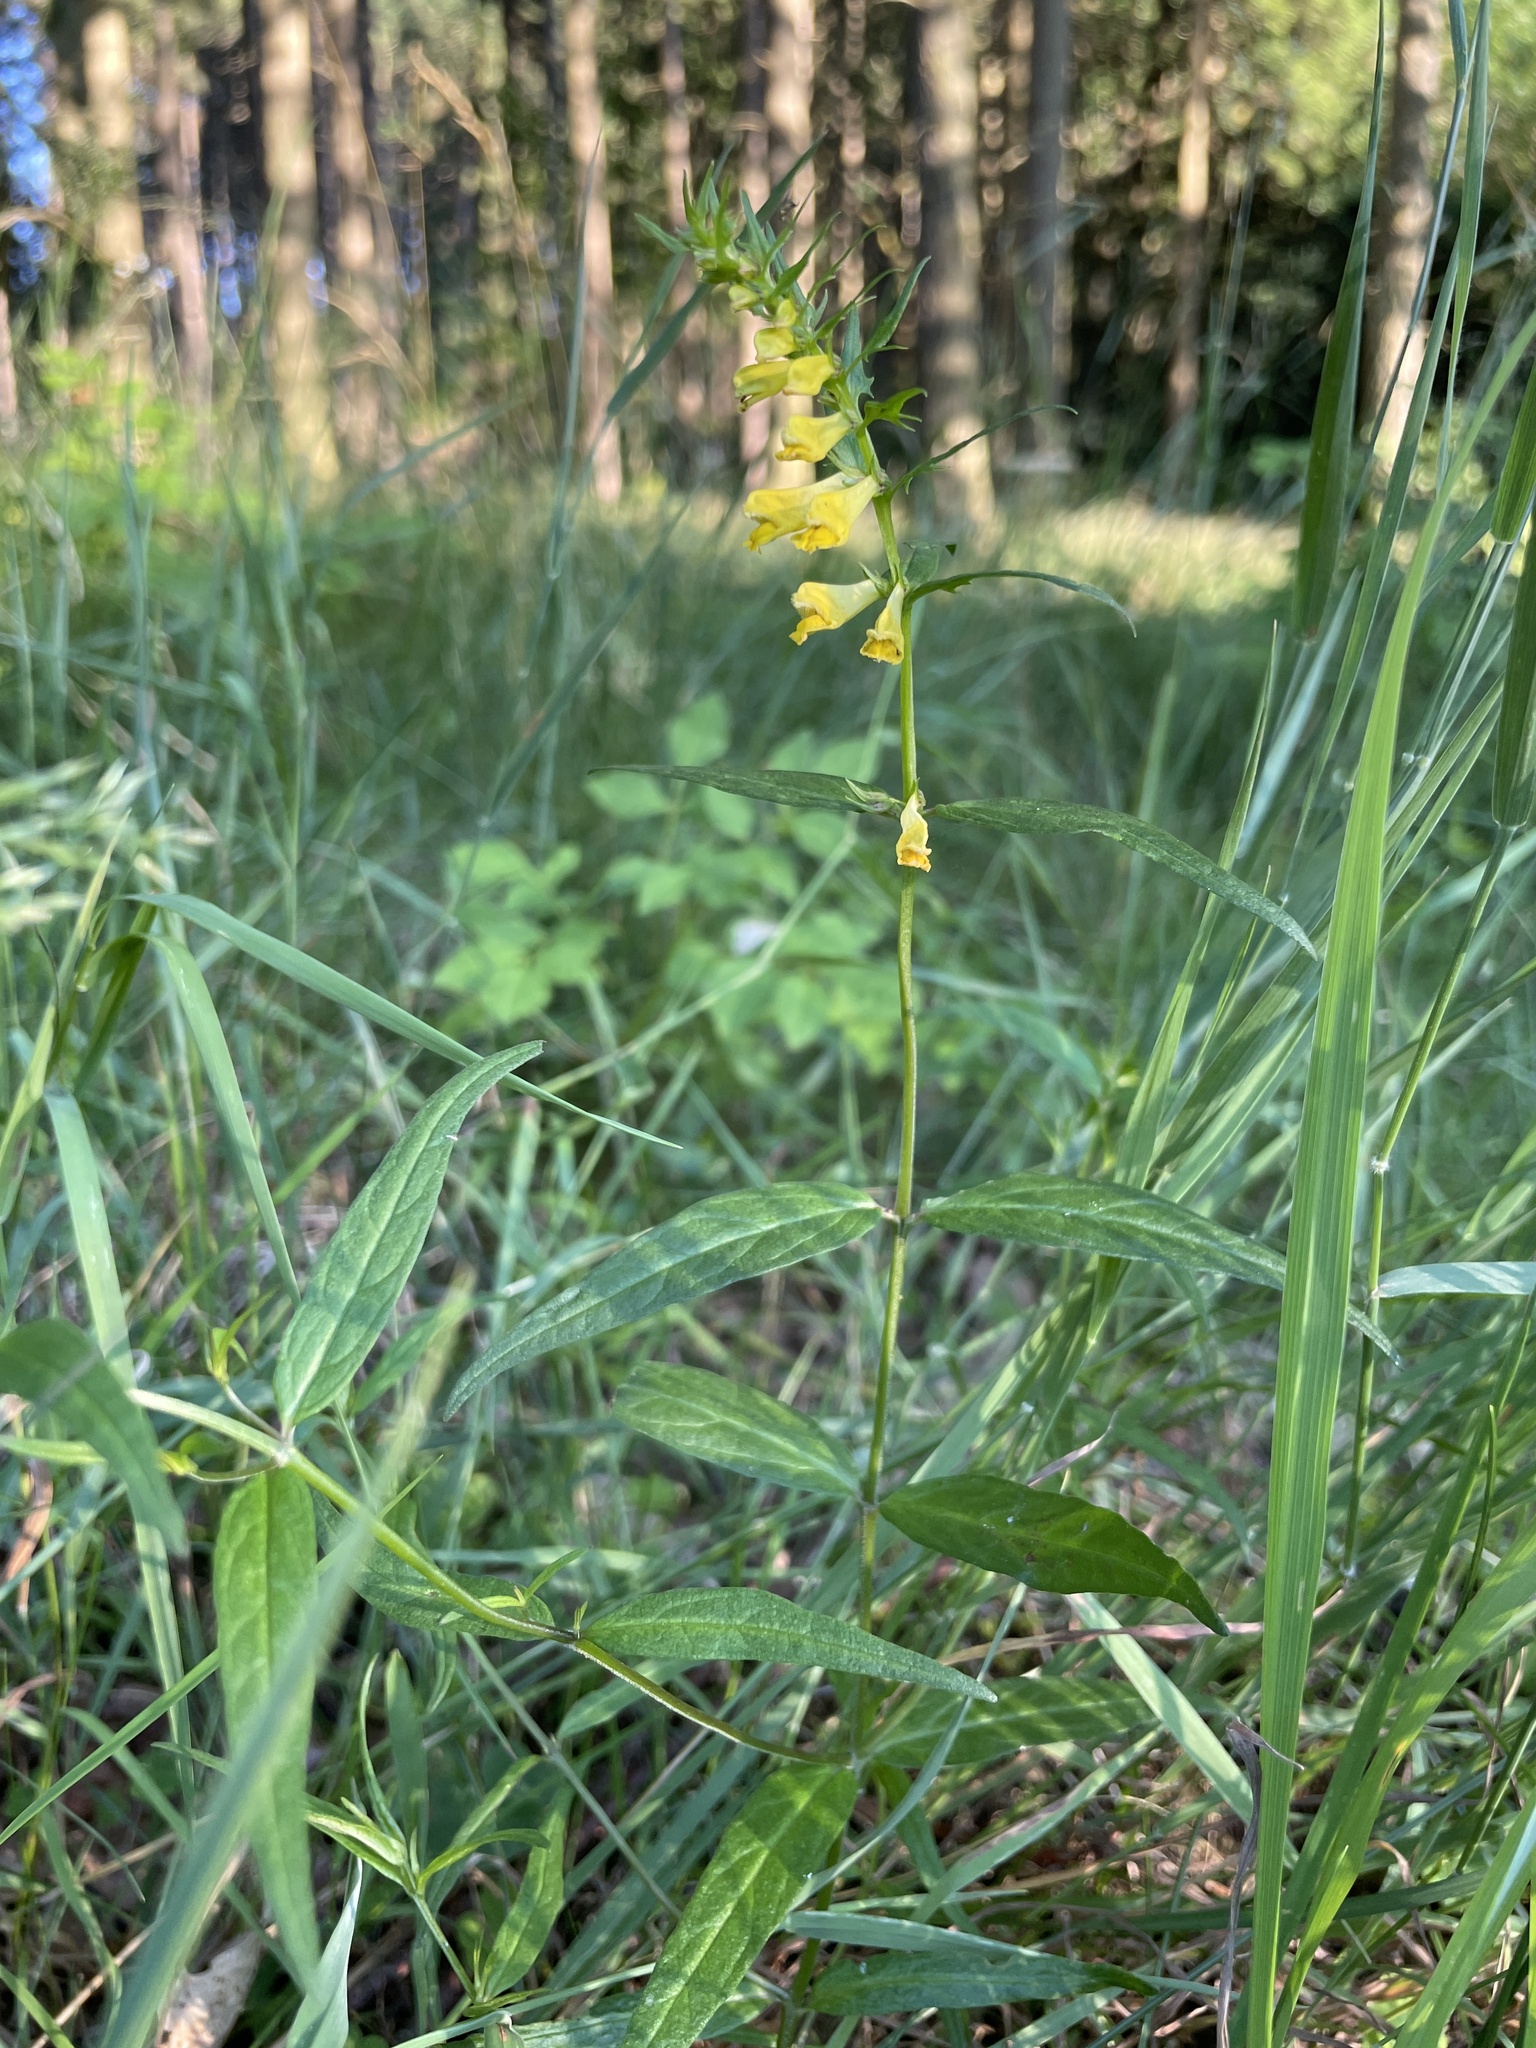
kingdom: Plantae
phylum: Tracheophyta
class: Magnoliopsida
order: Lamiales
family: Orobanchaceae
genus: Melampyrum
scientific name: Melampyrum pratense
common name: Common cow-wheat
